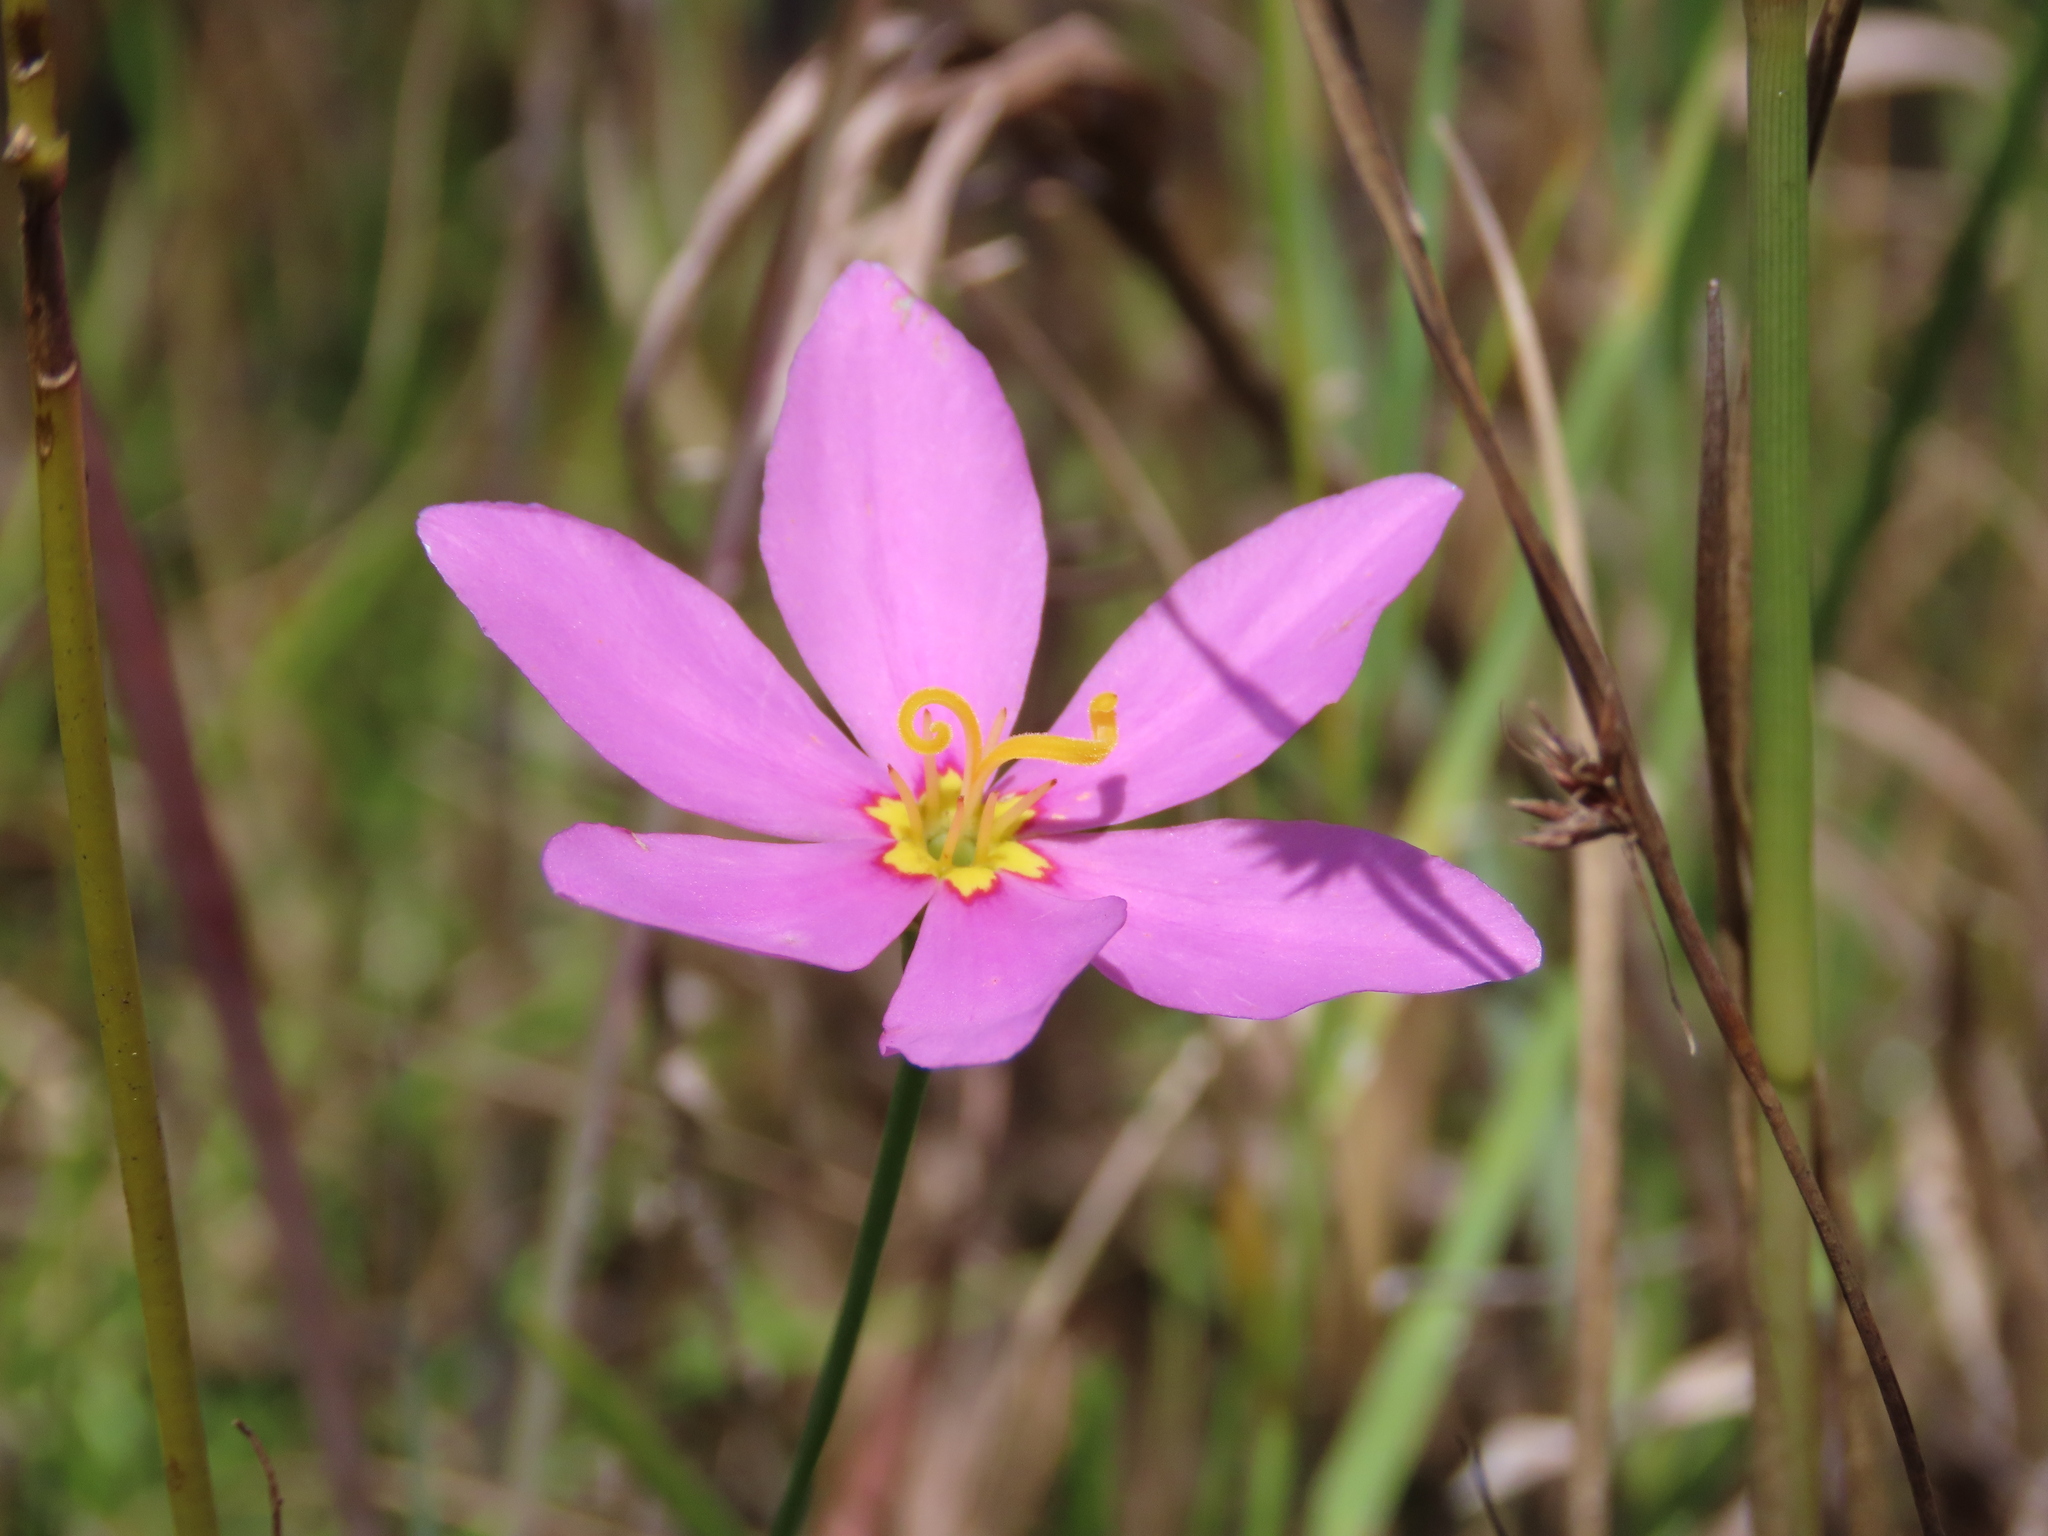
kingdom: Plantae
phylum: Tracheophyta
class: Magnoliopsida
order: Gentianales
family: Gentianaceae
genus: Sabatia
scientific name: Sabatia grandiflora
